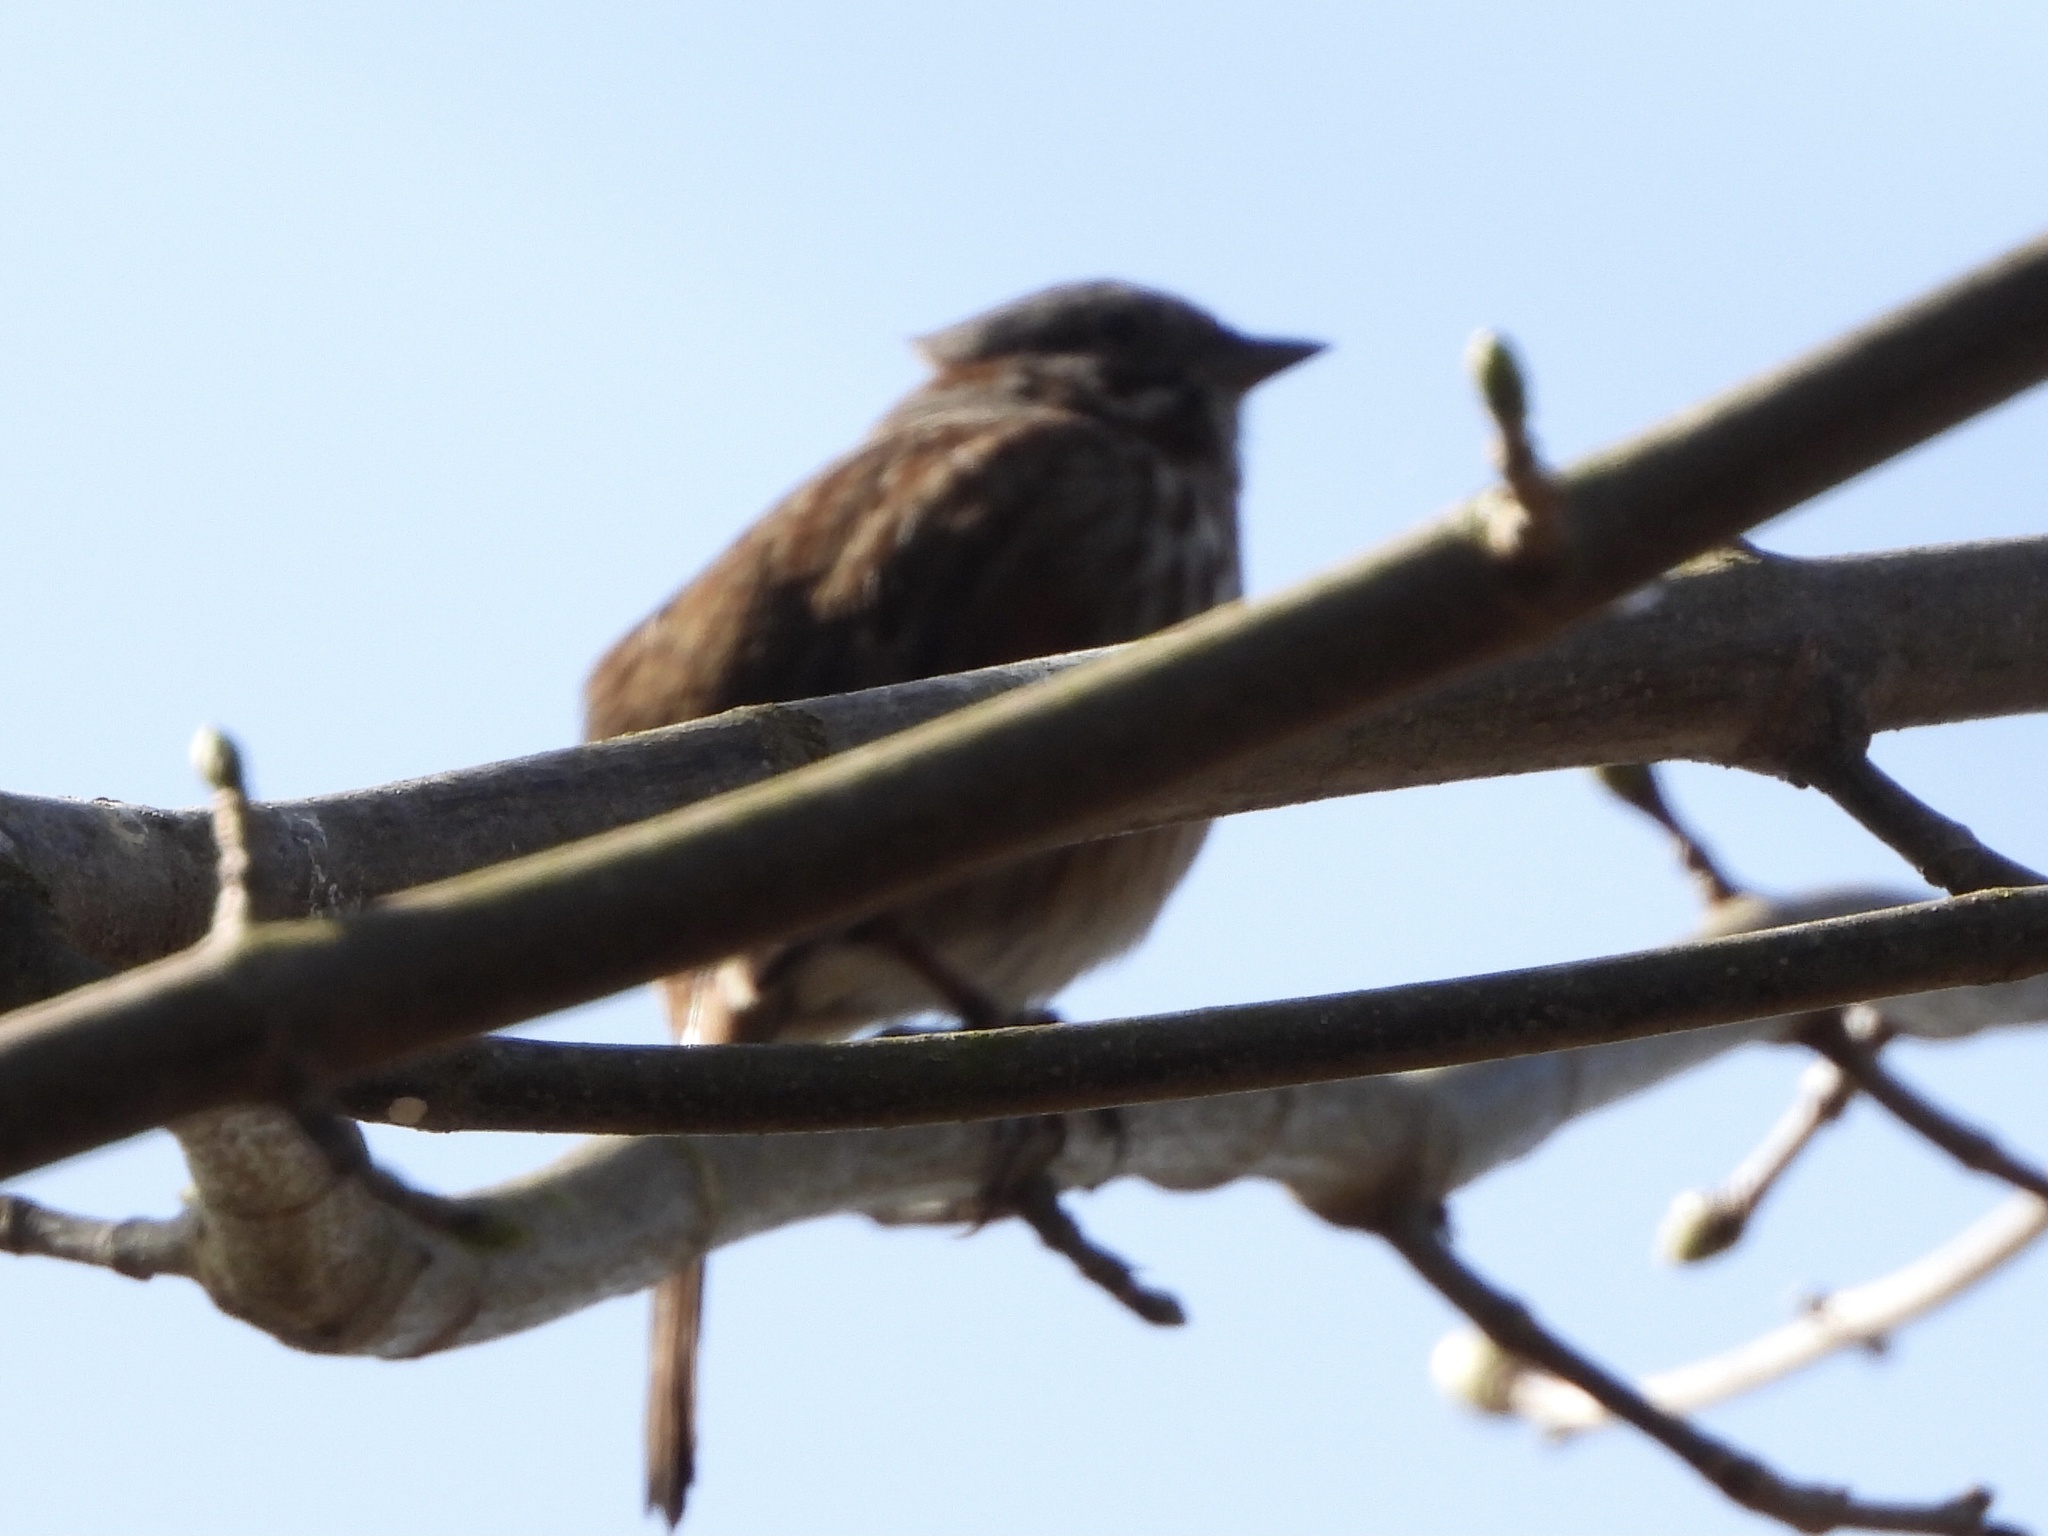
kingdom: Animalia
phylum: Chordata
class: Aves
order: Passeriformes
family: Passerellidae
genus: Melospiza
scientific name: Melospiza melodia
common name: Song sparrow
